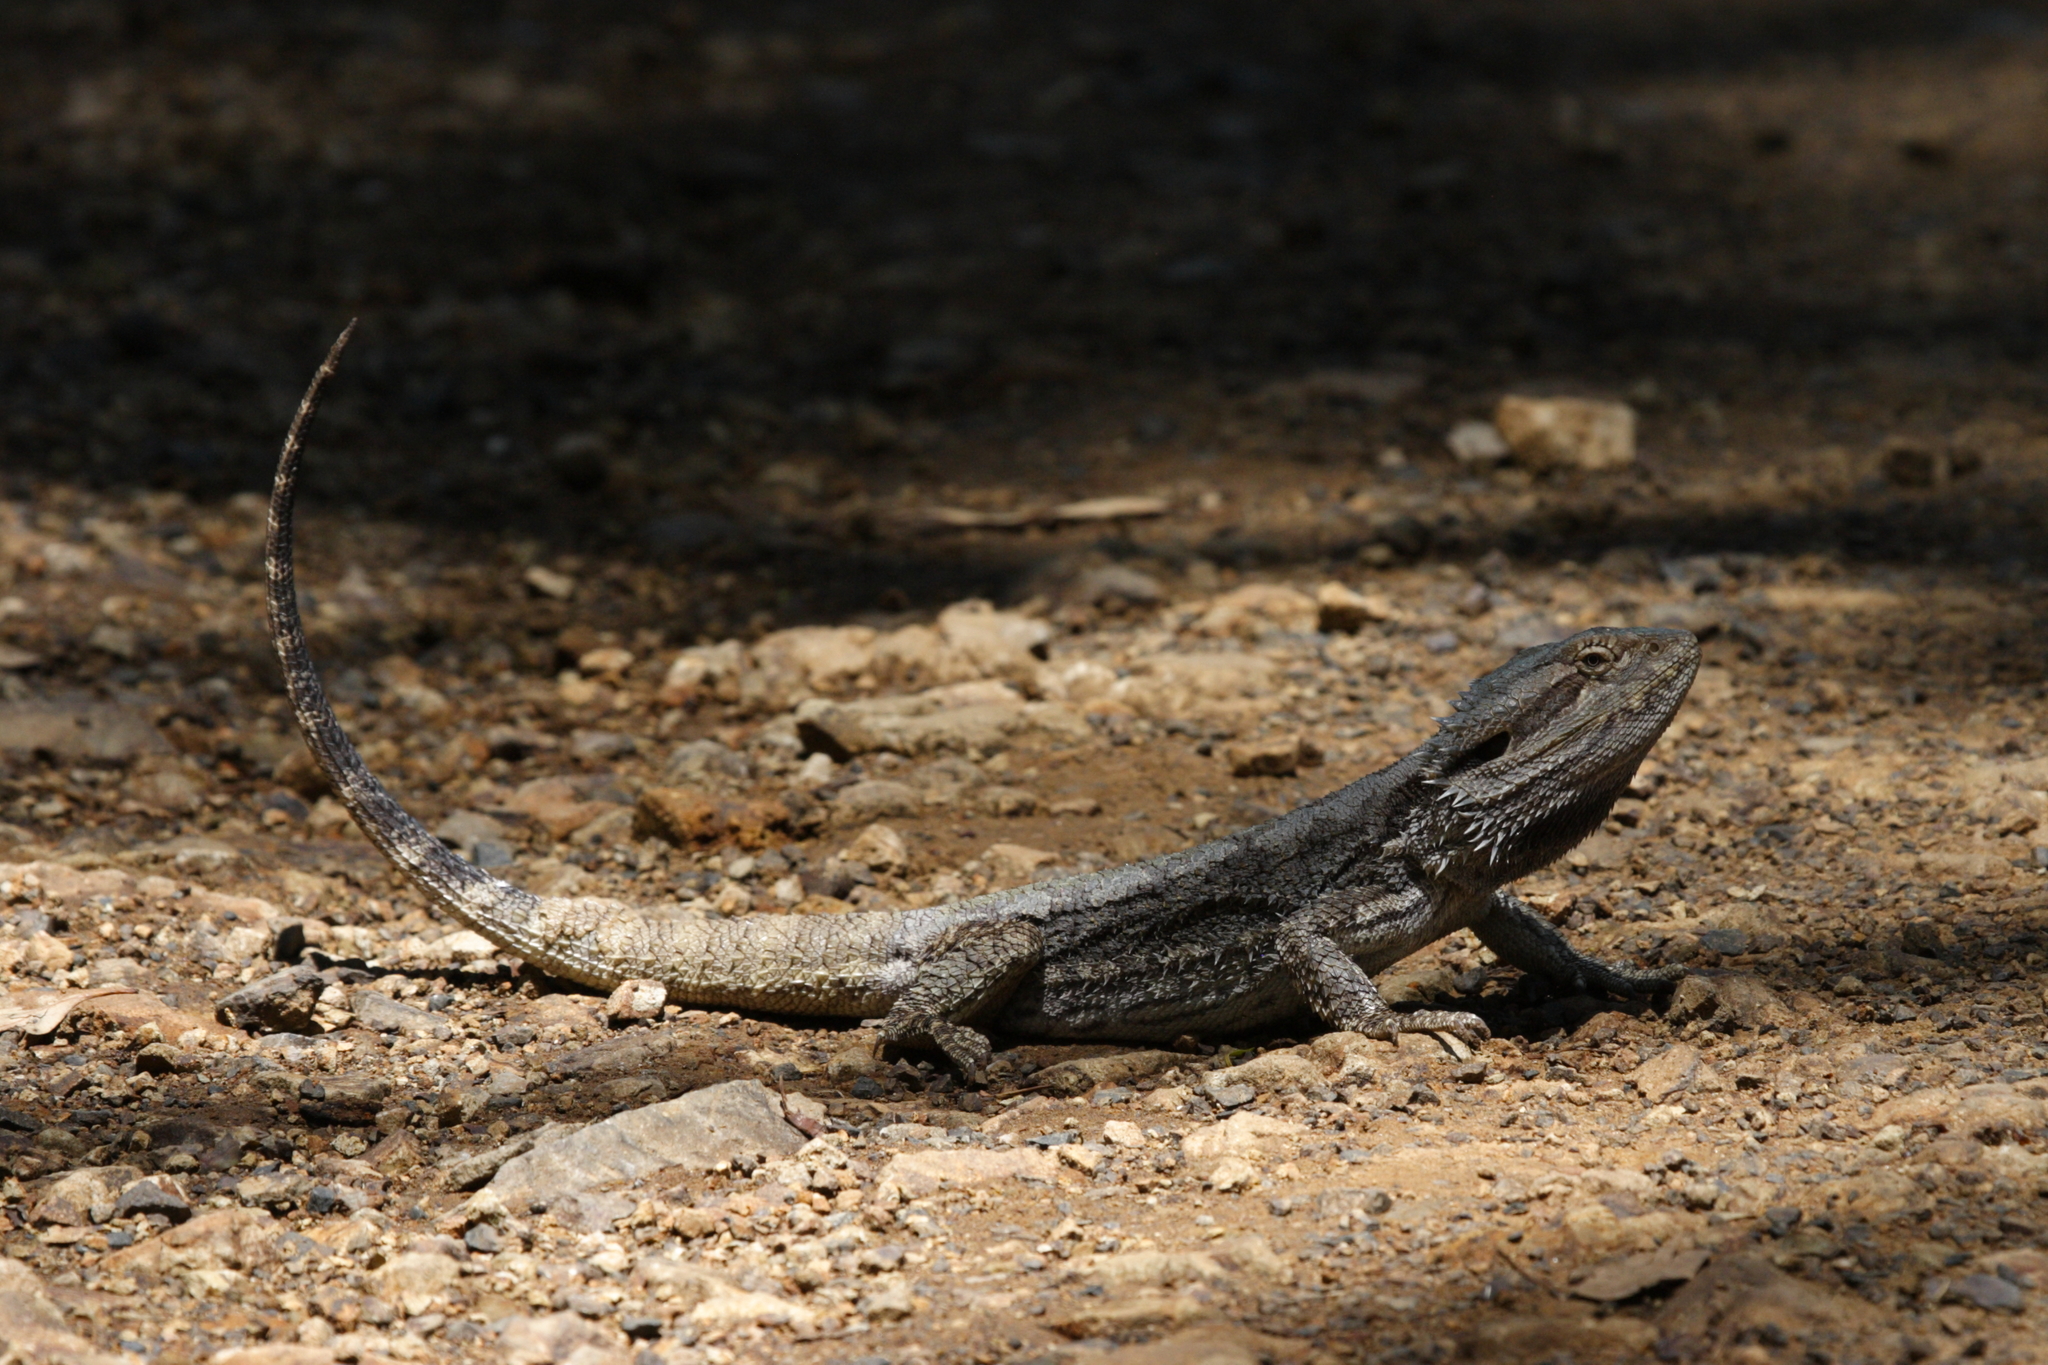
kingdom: Animalia
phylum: Chordata
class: Squamata
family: Agamidae
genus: Pogona
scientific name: Pogona barbata
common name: Bearded dragon
